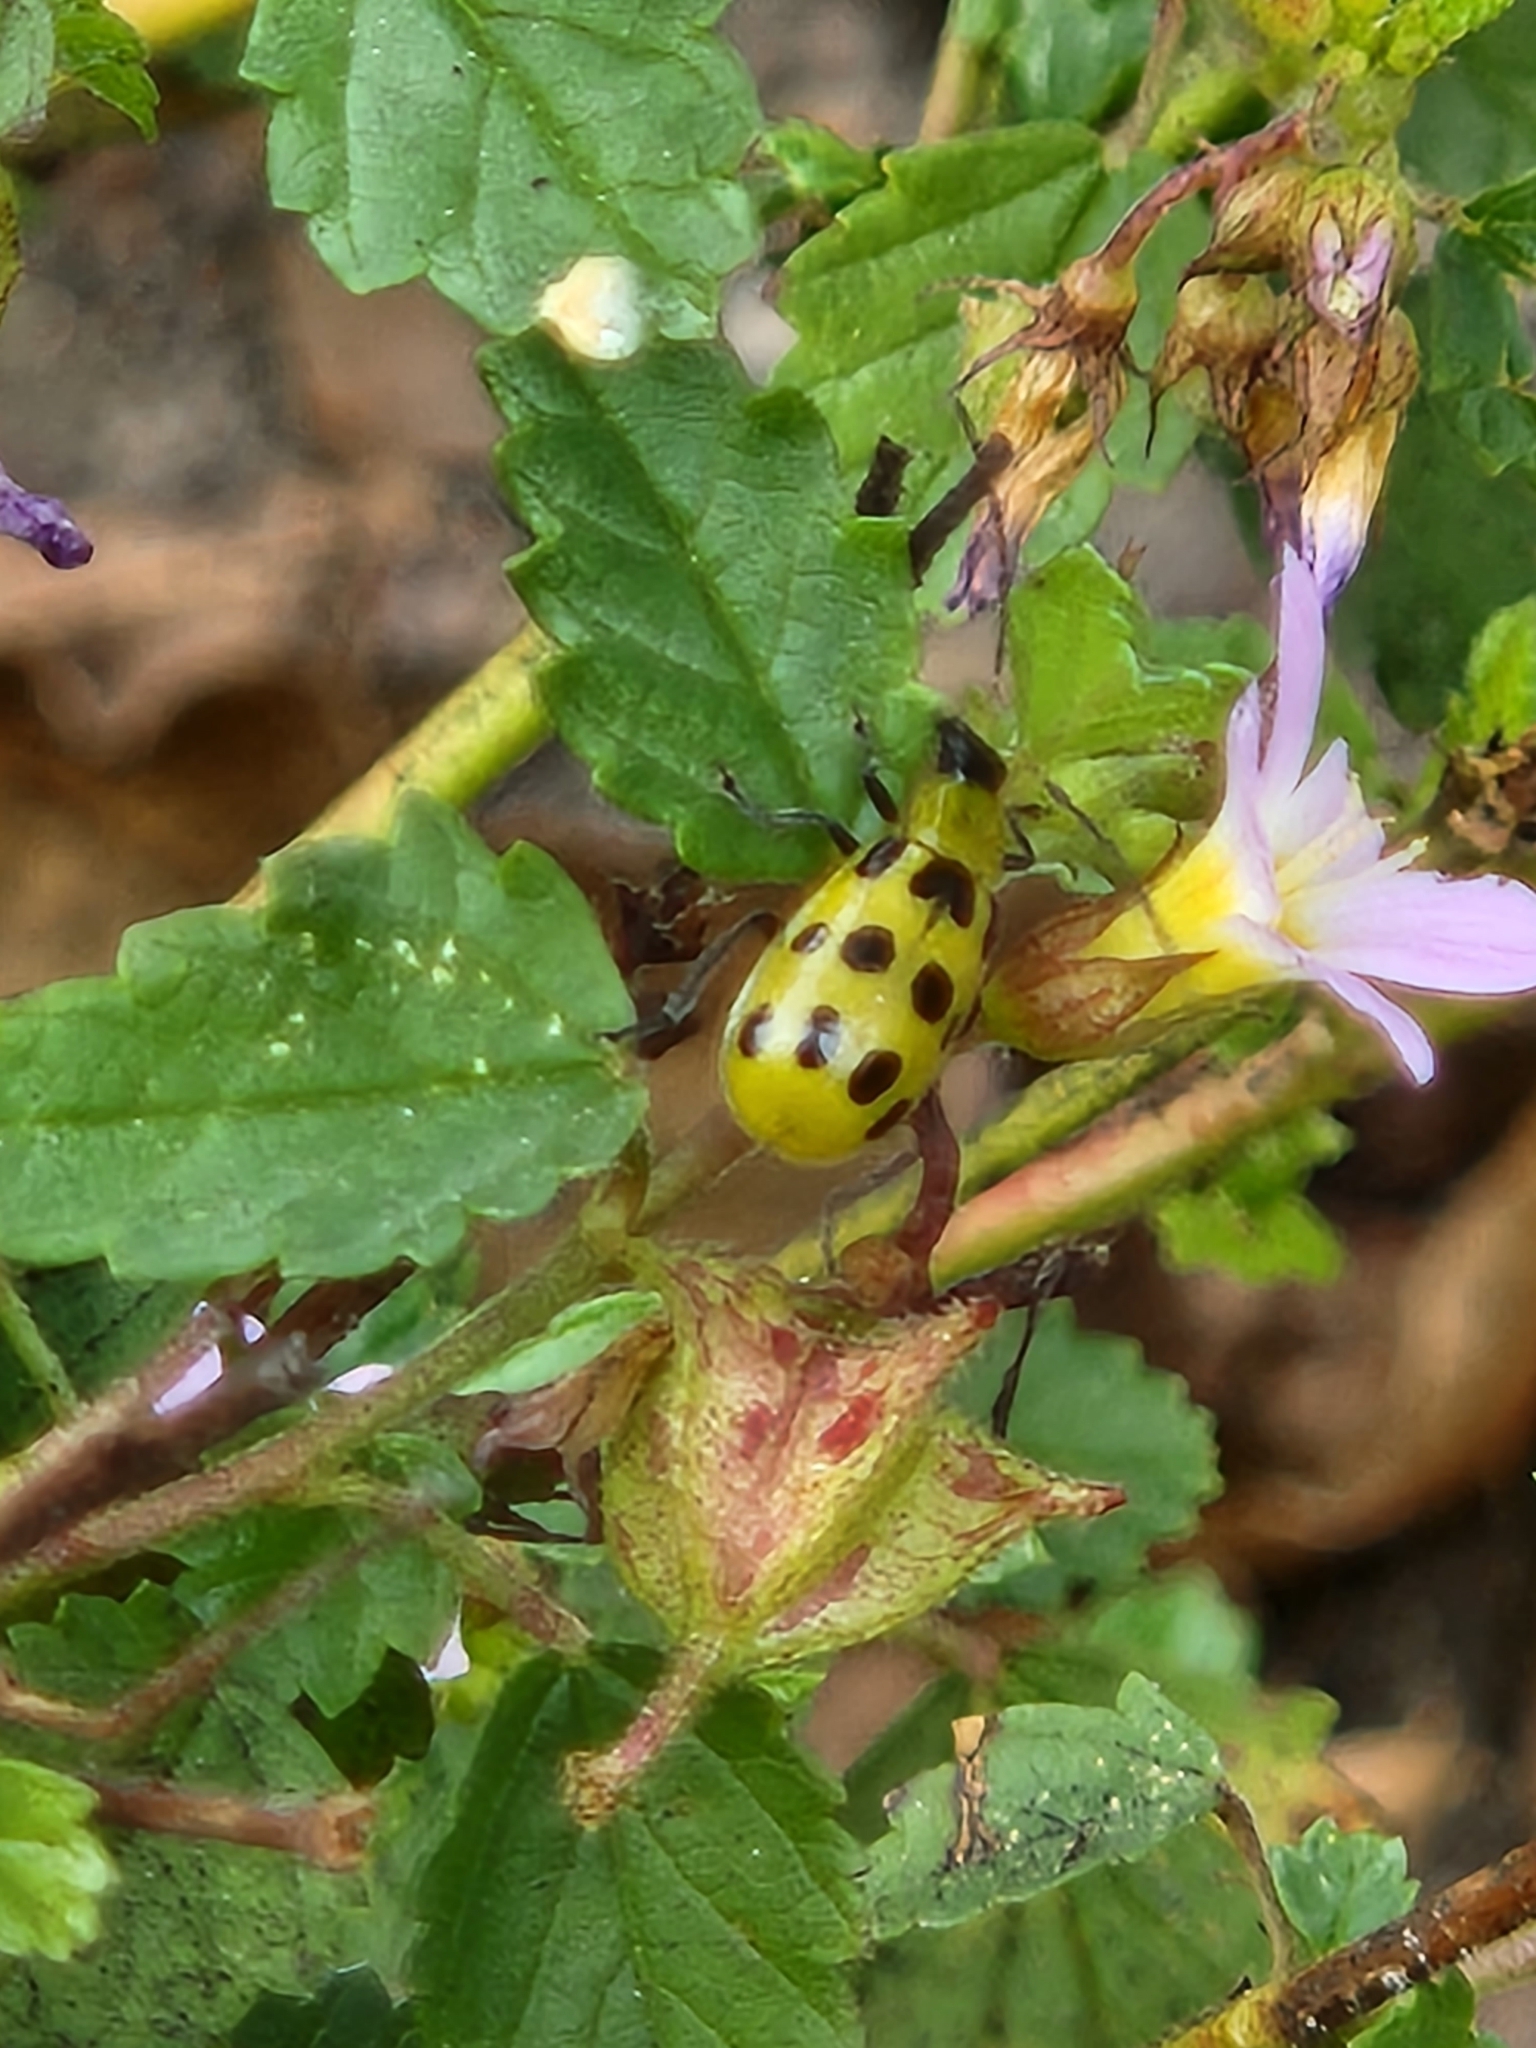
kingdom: Animalia
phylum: Arthropoda
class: Insecta
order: Coleoptera
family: Chrysomelidae
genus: Diabrotica
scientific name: Diabrotica undecimpunctata
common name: Spotted cucumber beetle
